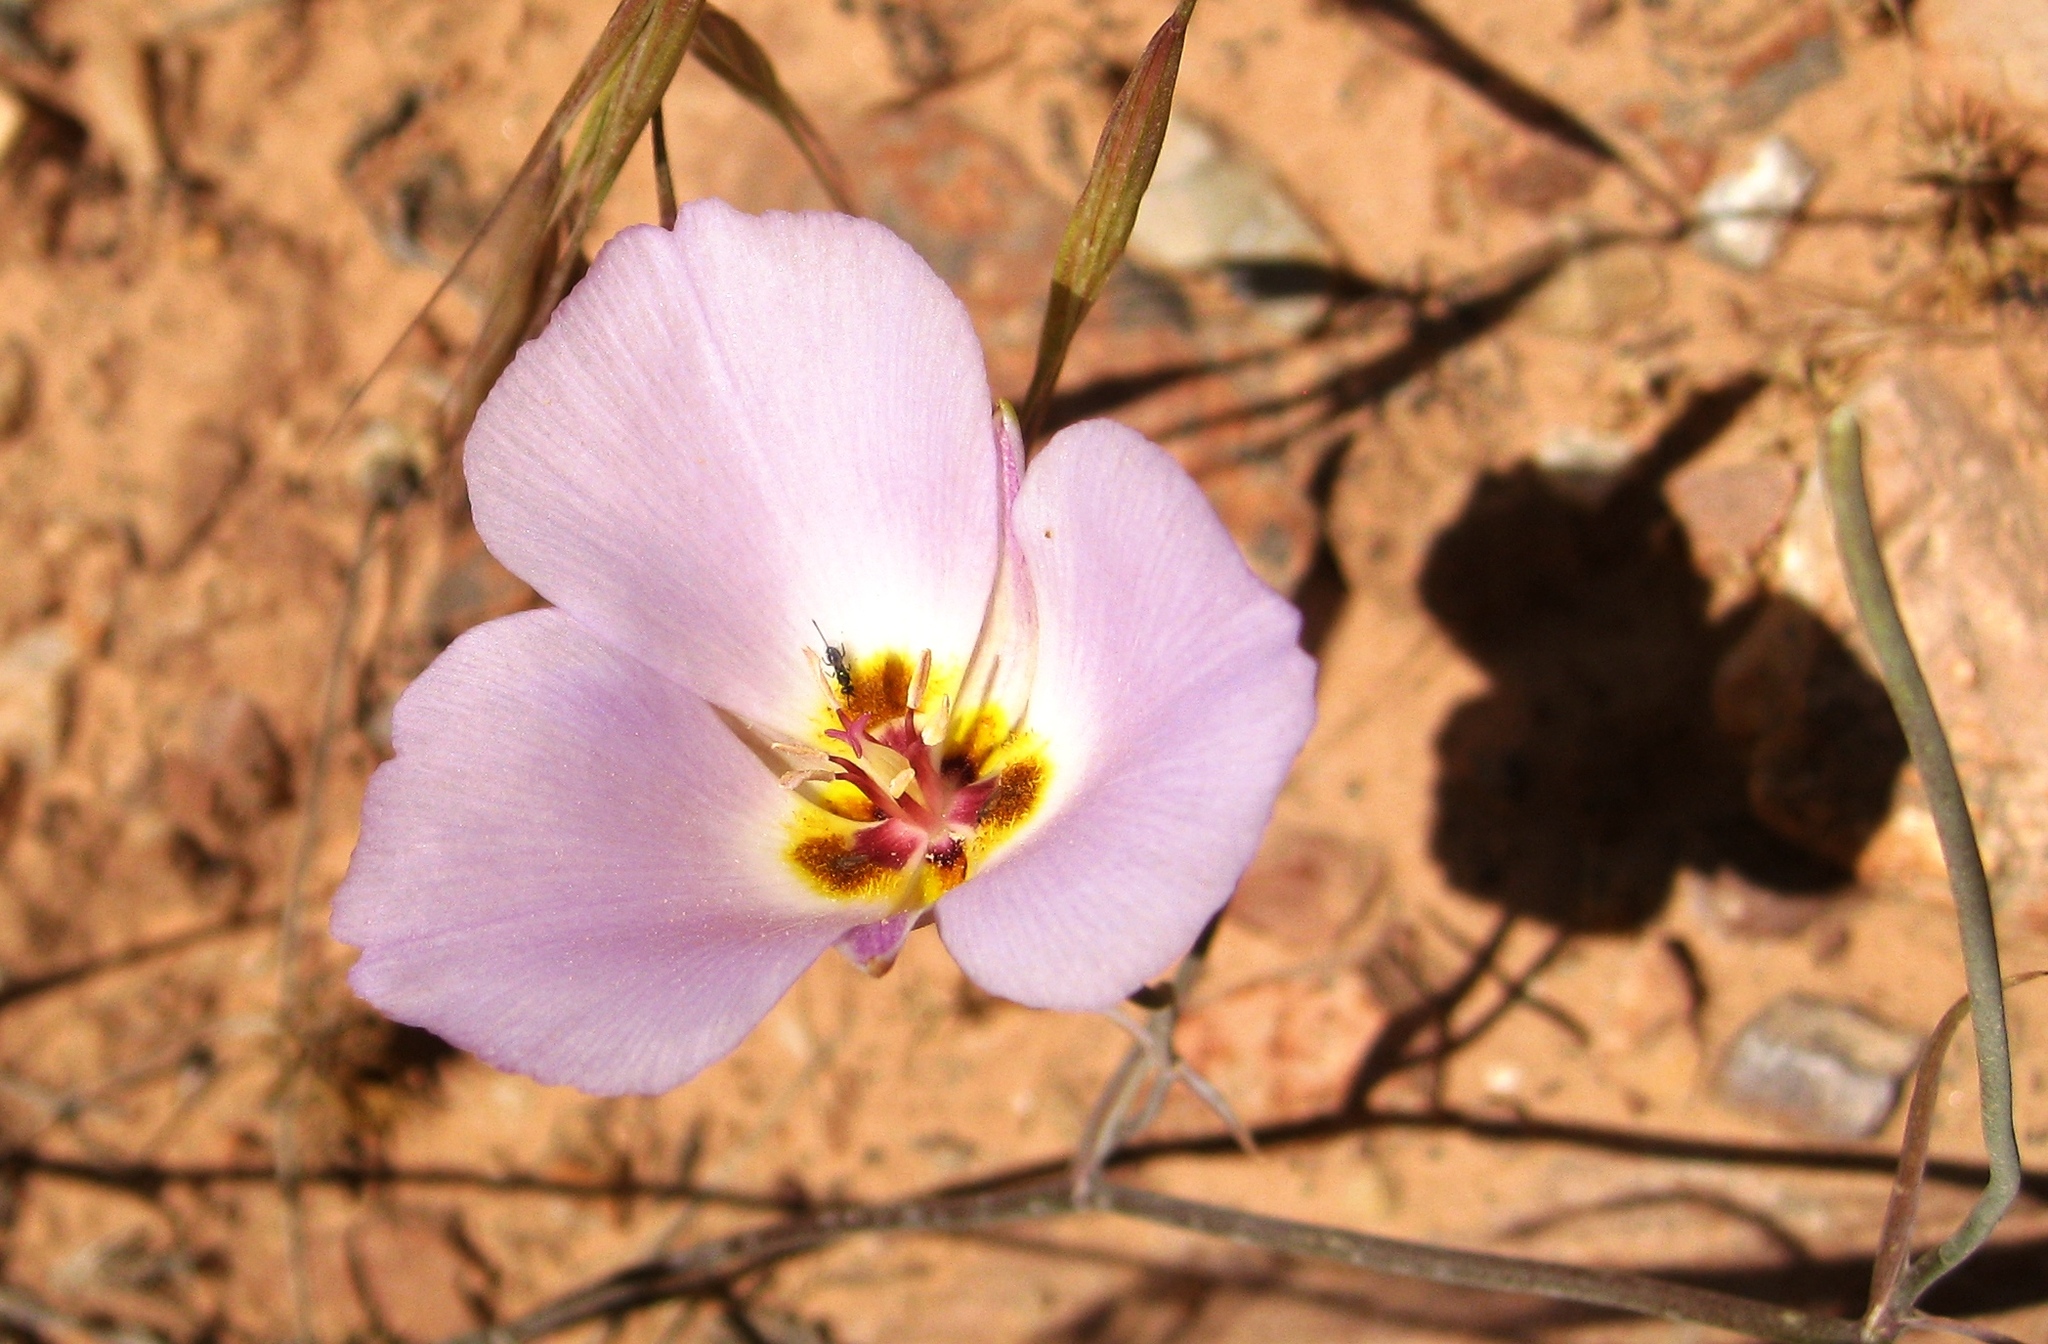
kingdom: Plantae
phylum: Tracheophyta
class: Liliopsida
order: Liliales
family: Liliaceae
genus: Calochortus
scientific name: Calochortus flexuosus
